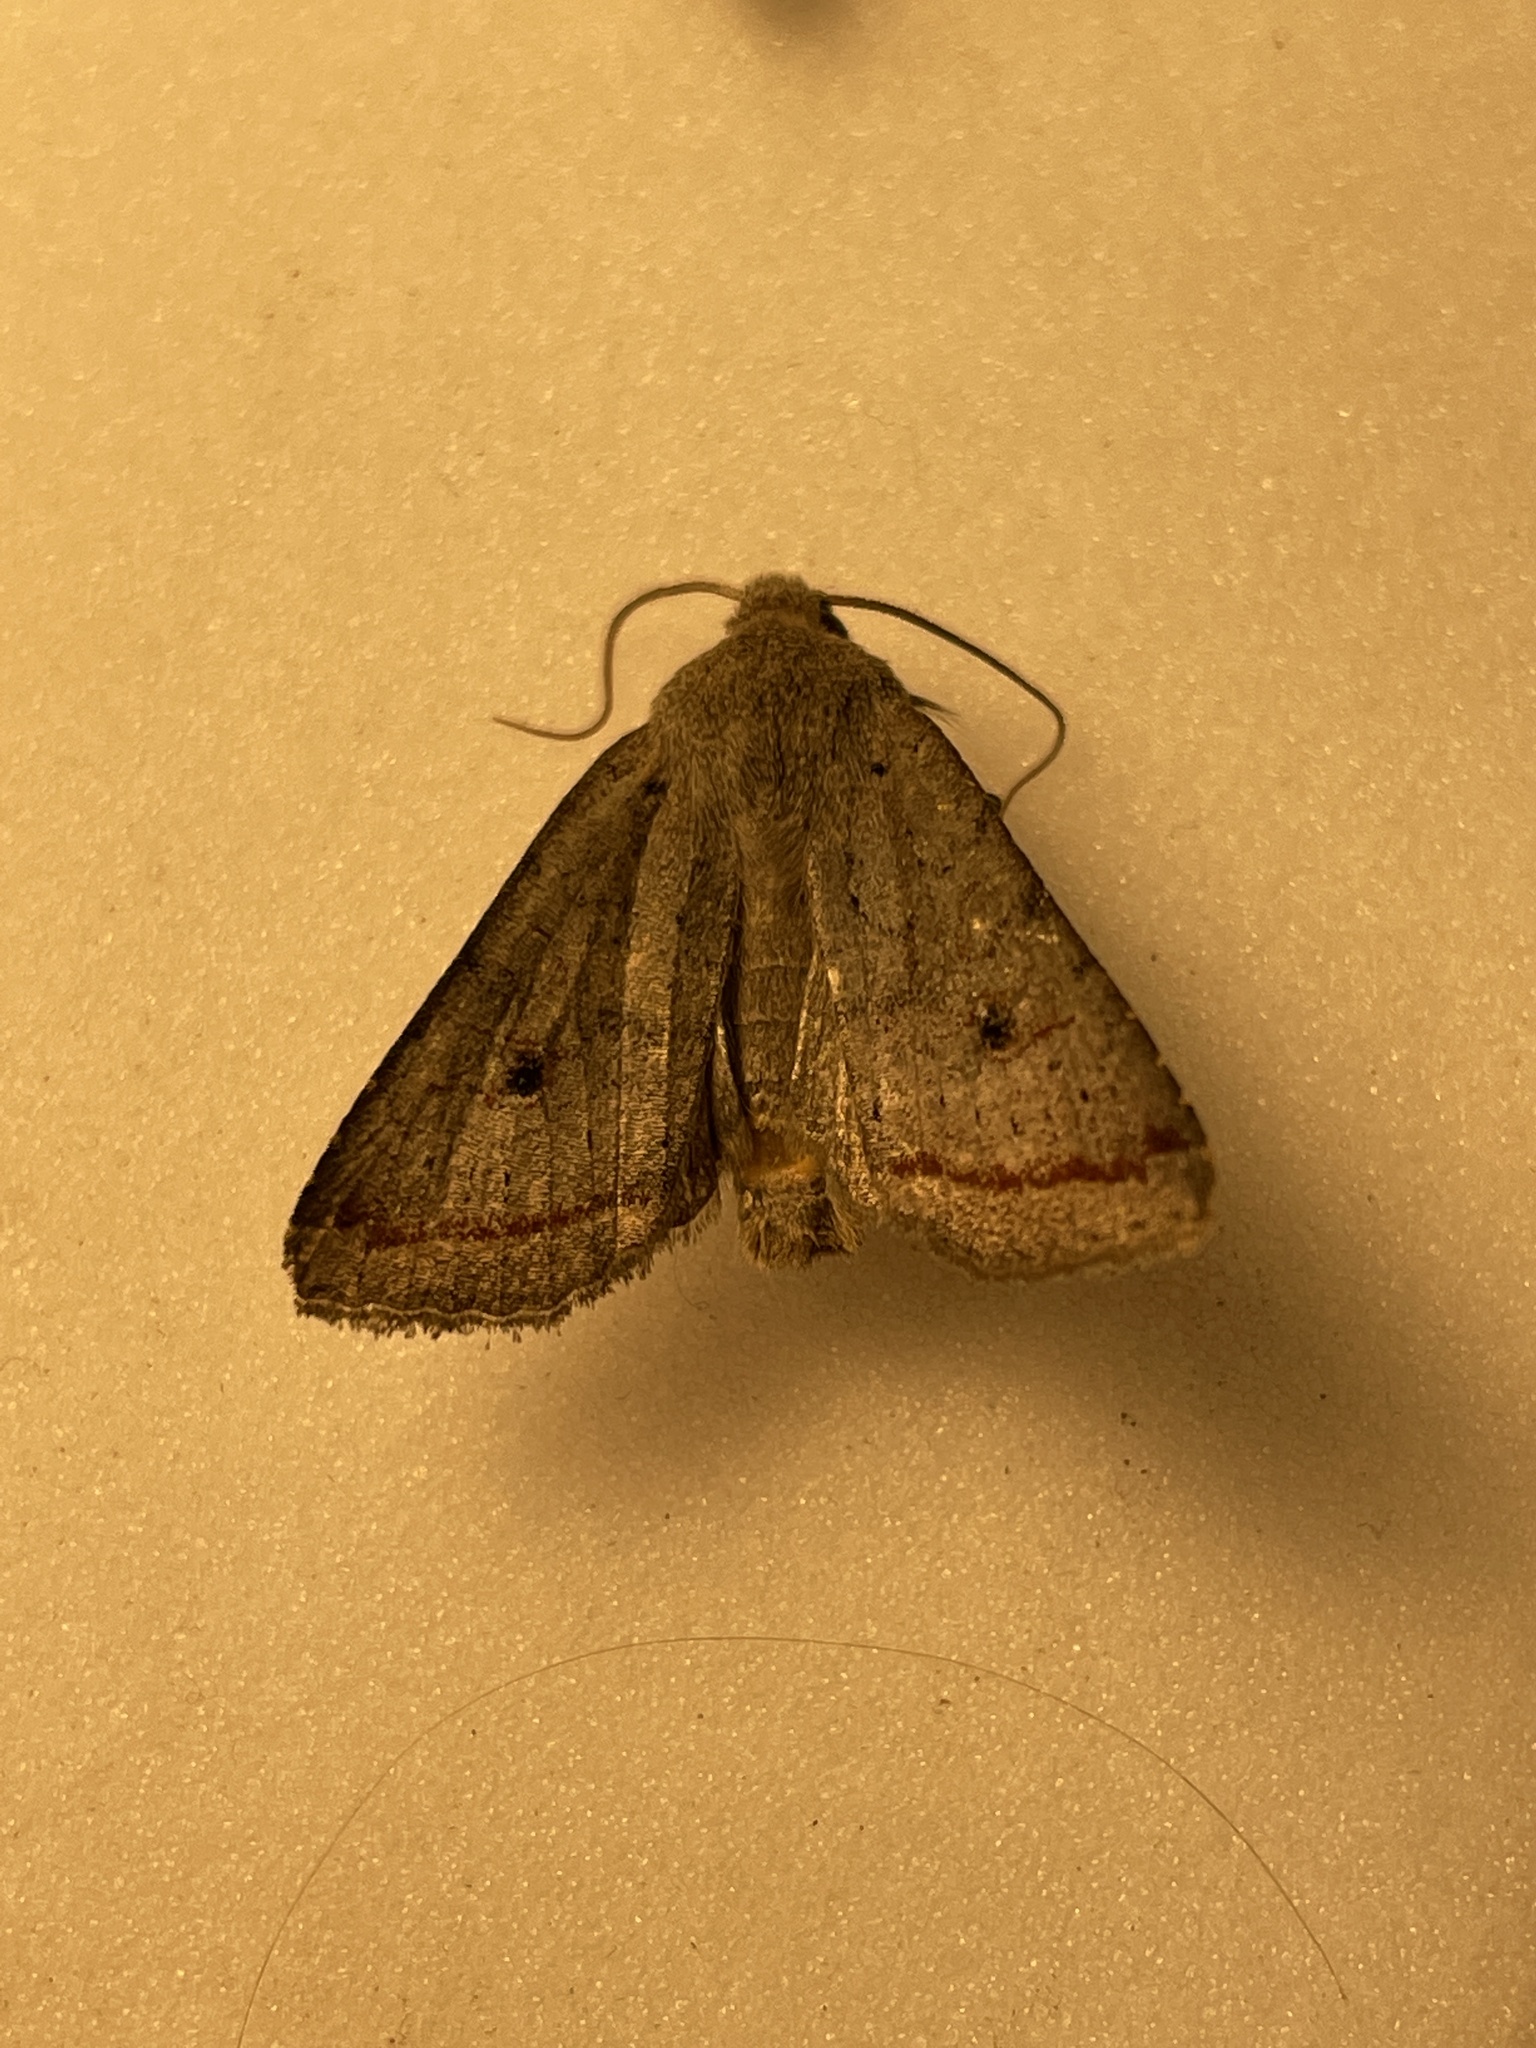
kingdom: Animalia
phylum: Arthropoda
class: Insecta
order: Lepidoptera
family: Noctuidae
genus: Agrochola
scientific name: Agrochola lota
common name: Red-line quaker
